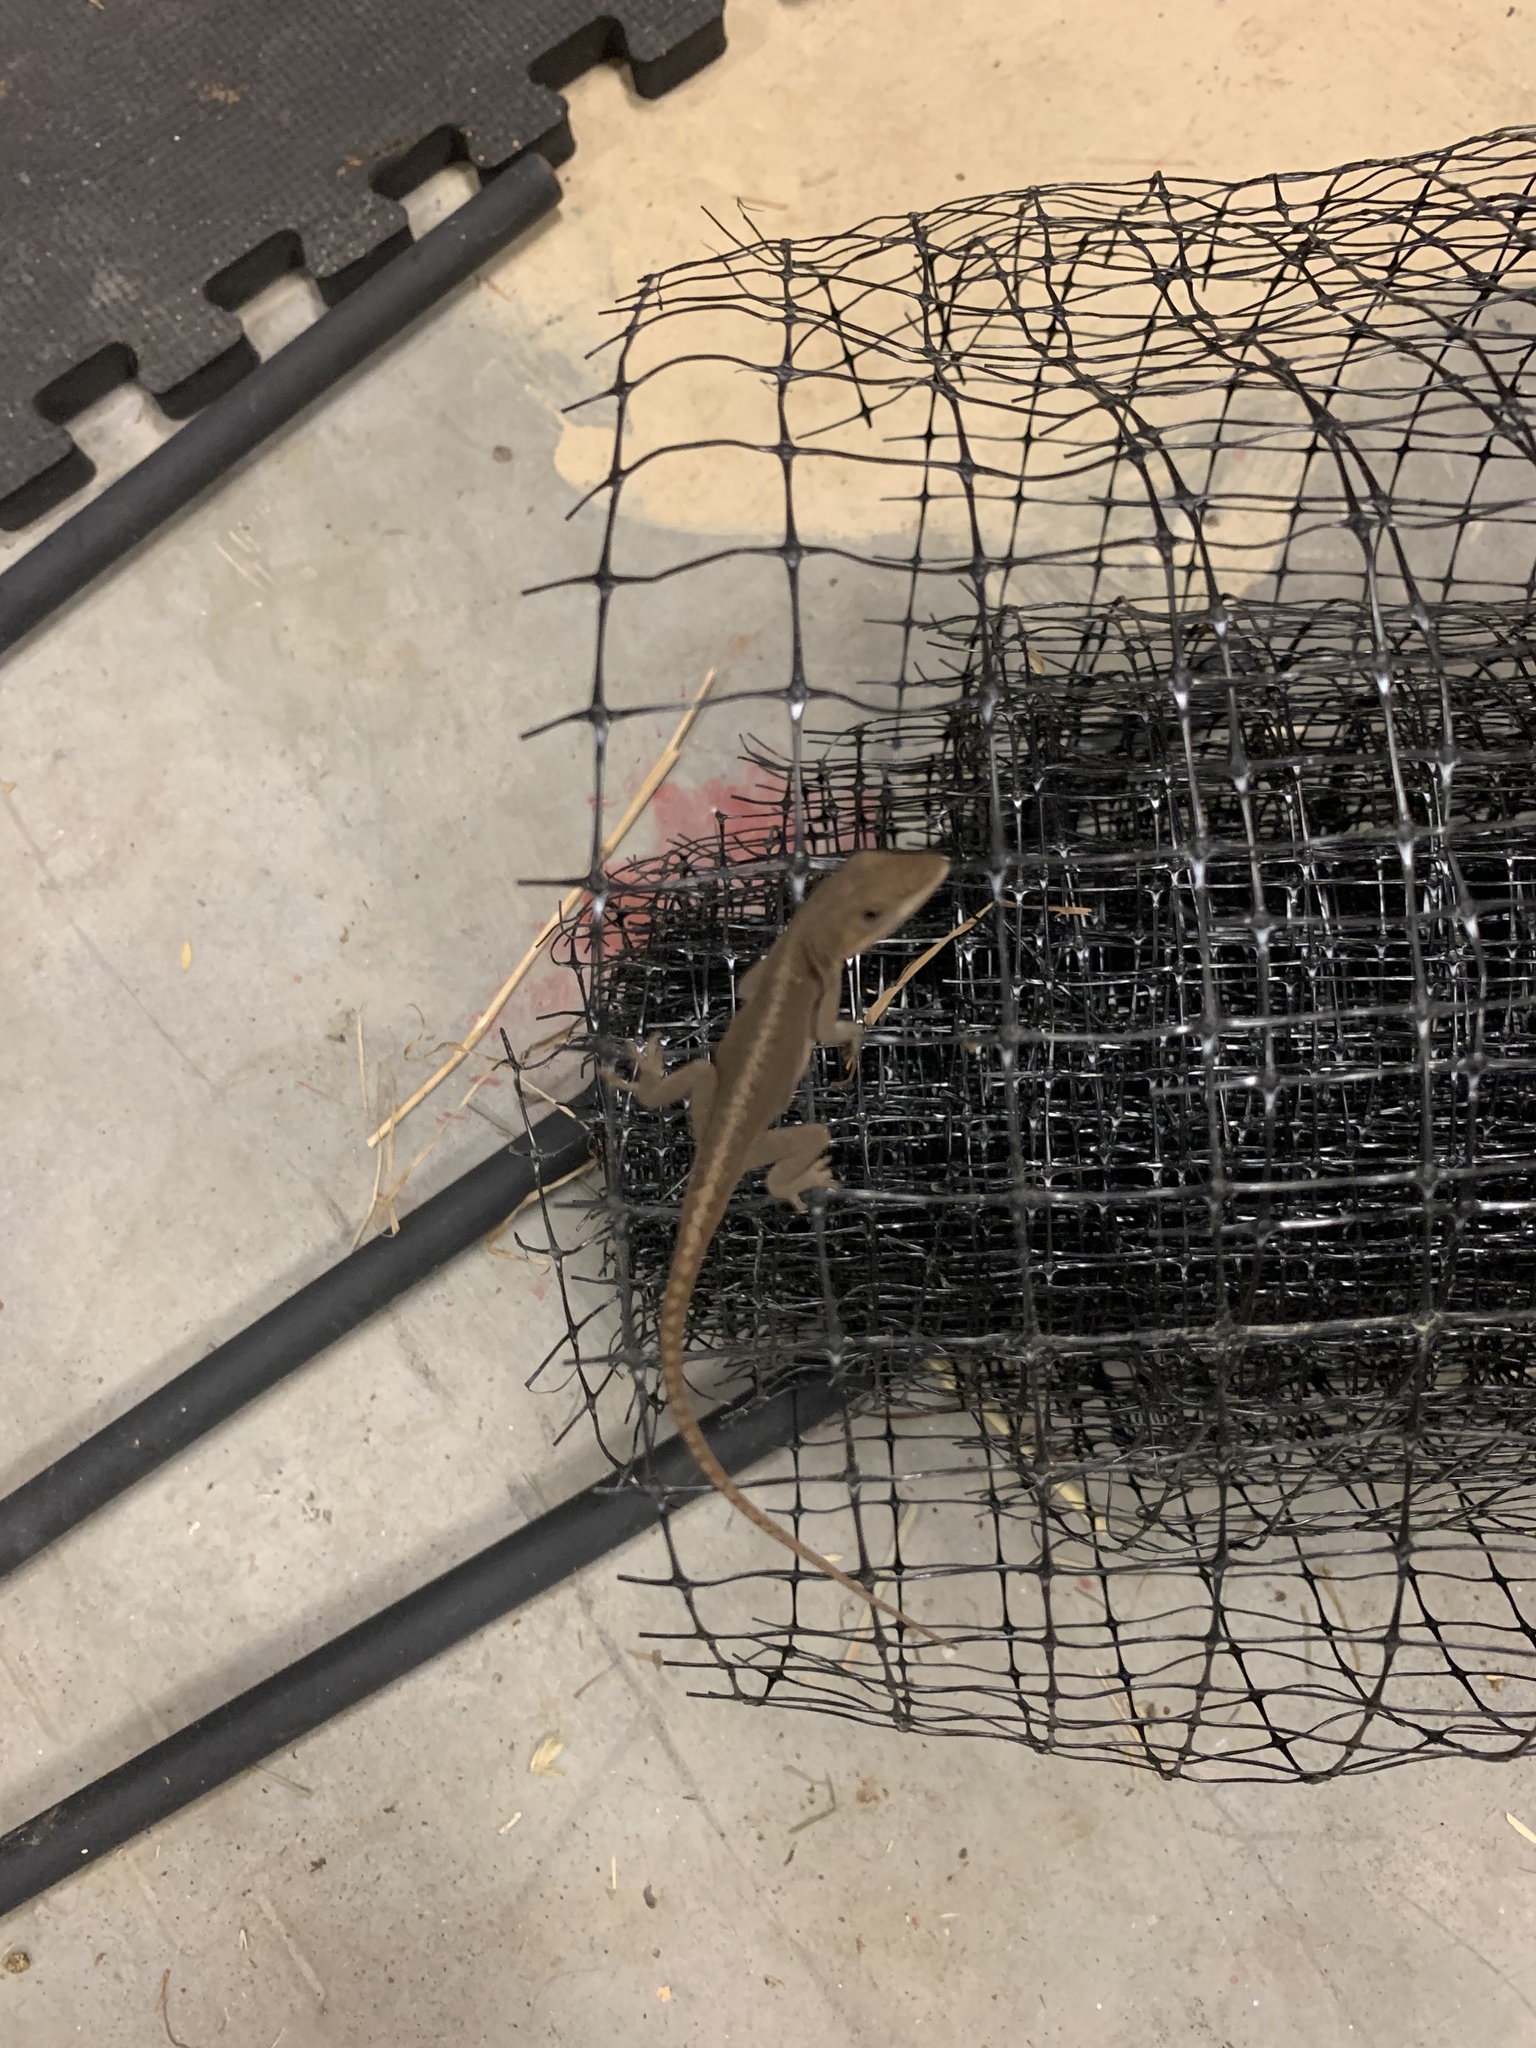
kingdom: Animalia
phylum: Chordata
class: Squamata
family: Dactyloidae
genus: Anolis
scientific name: Anolis carolinensis
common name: Green anole
